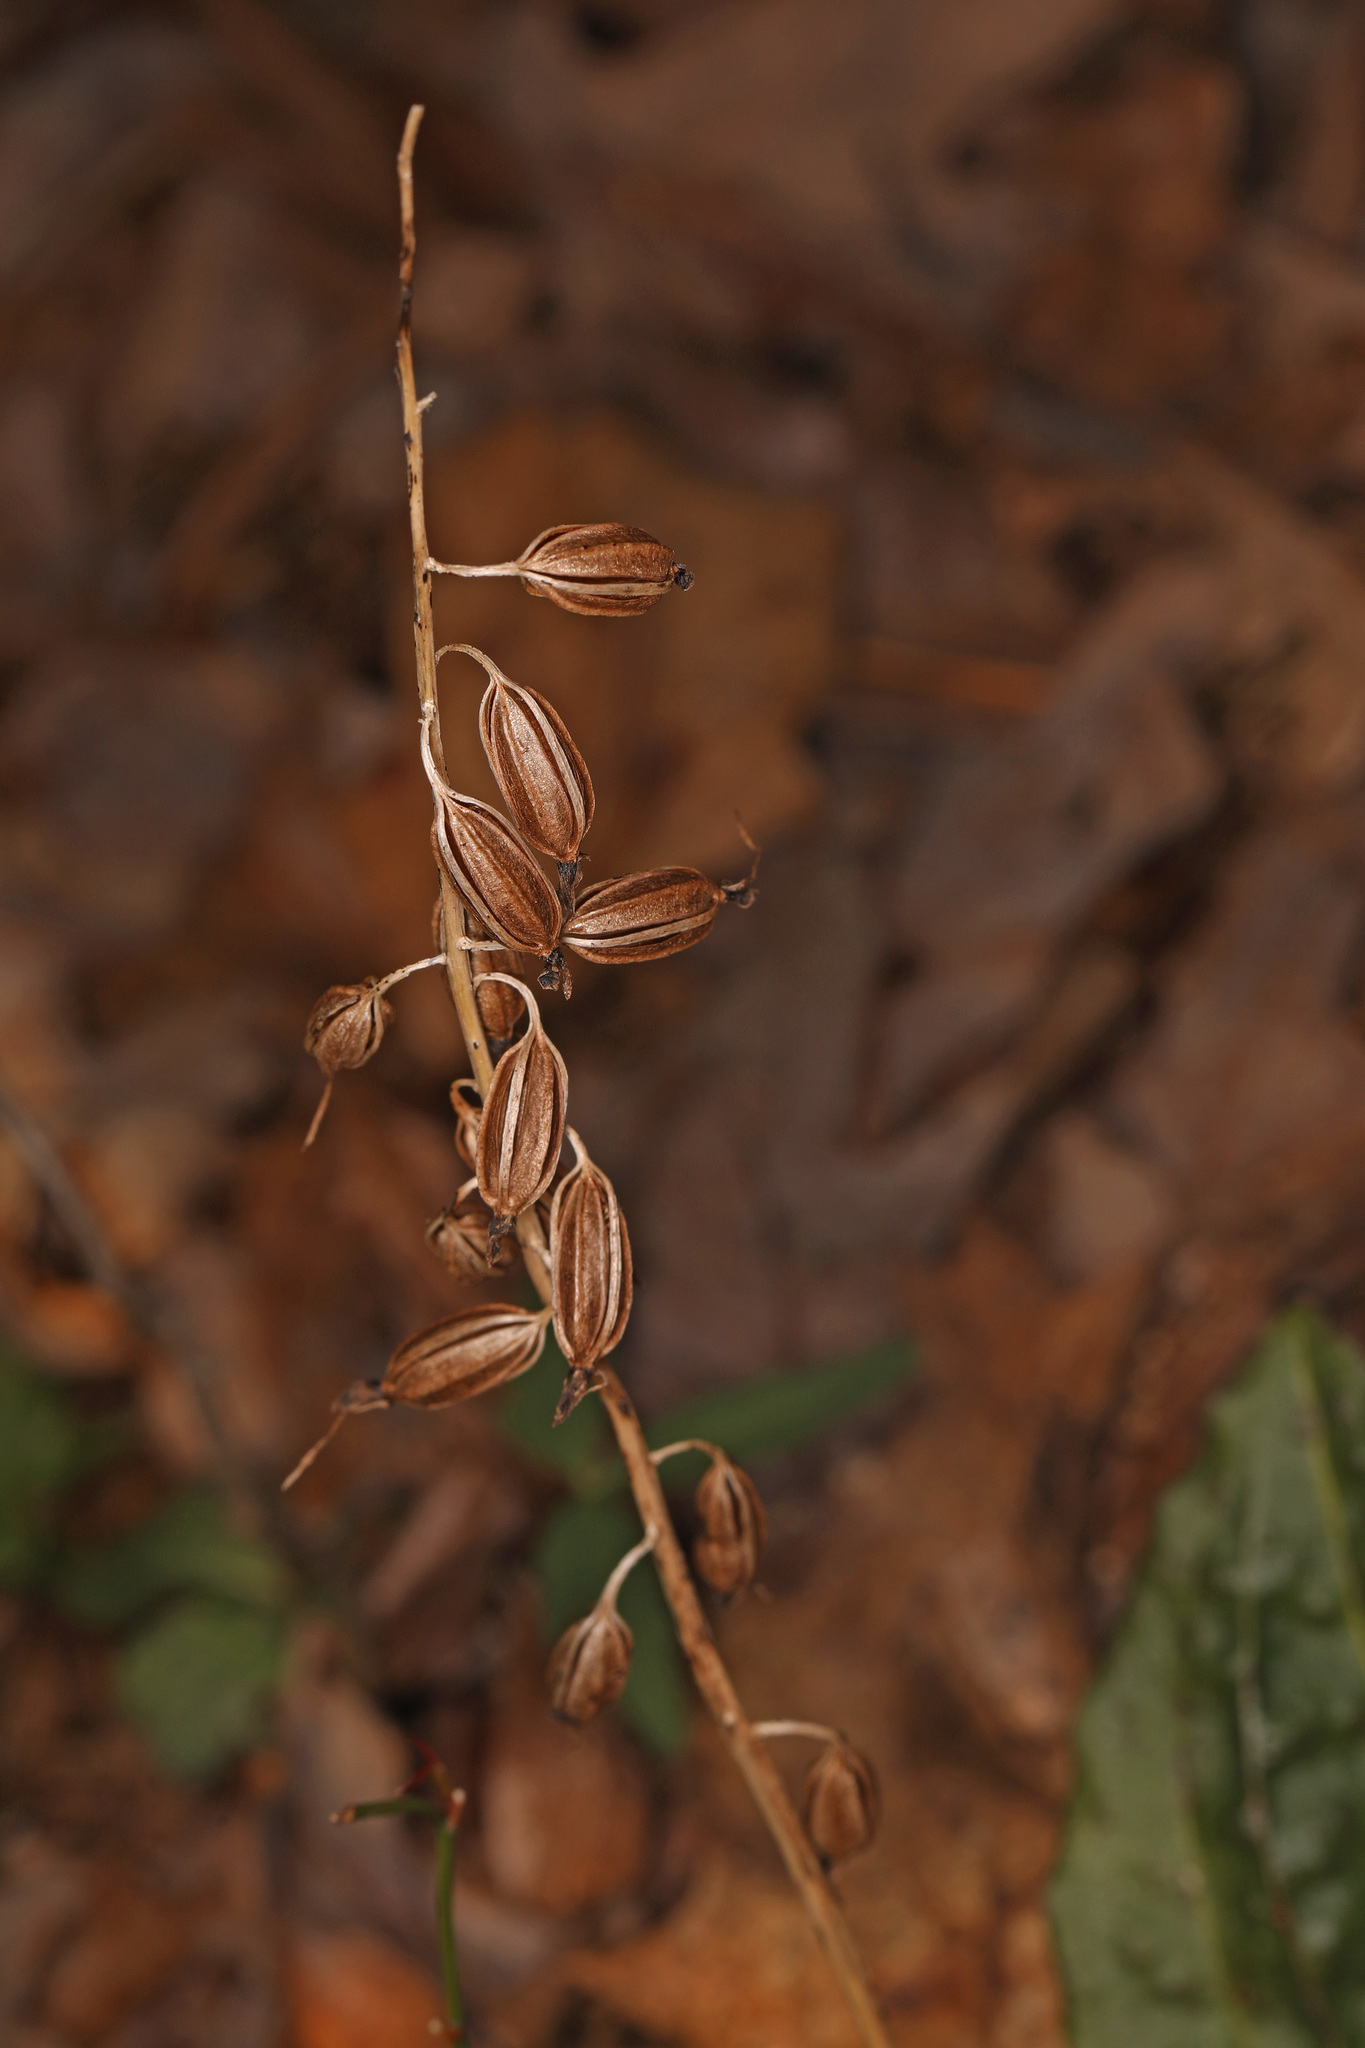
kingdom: Plantae
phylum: Tracheophyta
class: Liliopsida
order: Asparagales
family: Orchidaceae
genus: Tipularia
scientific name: Tipularia discolor
